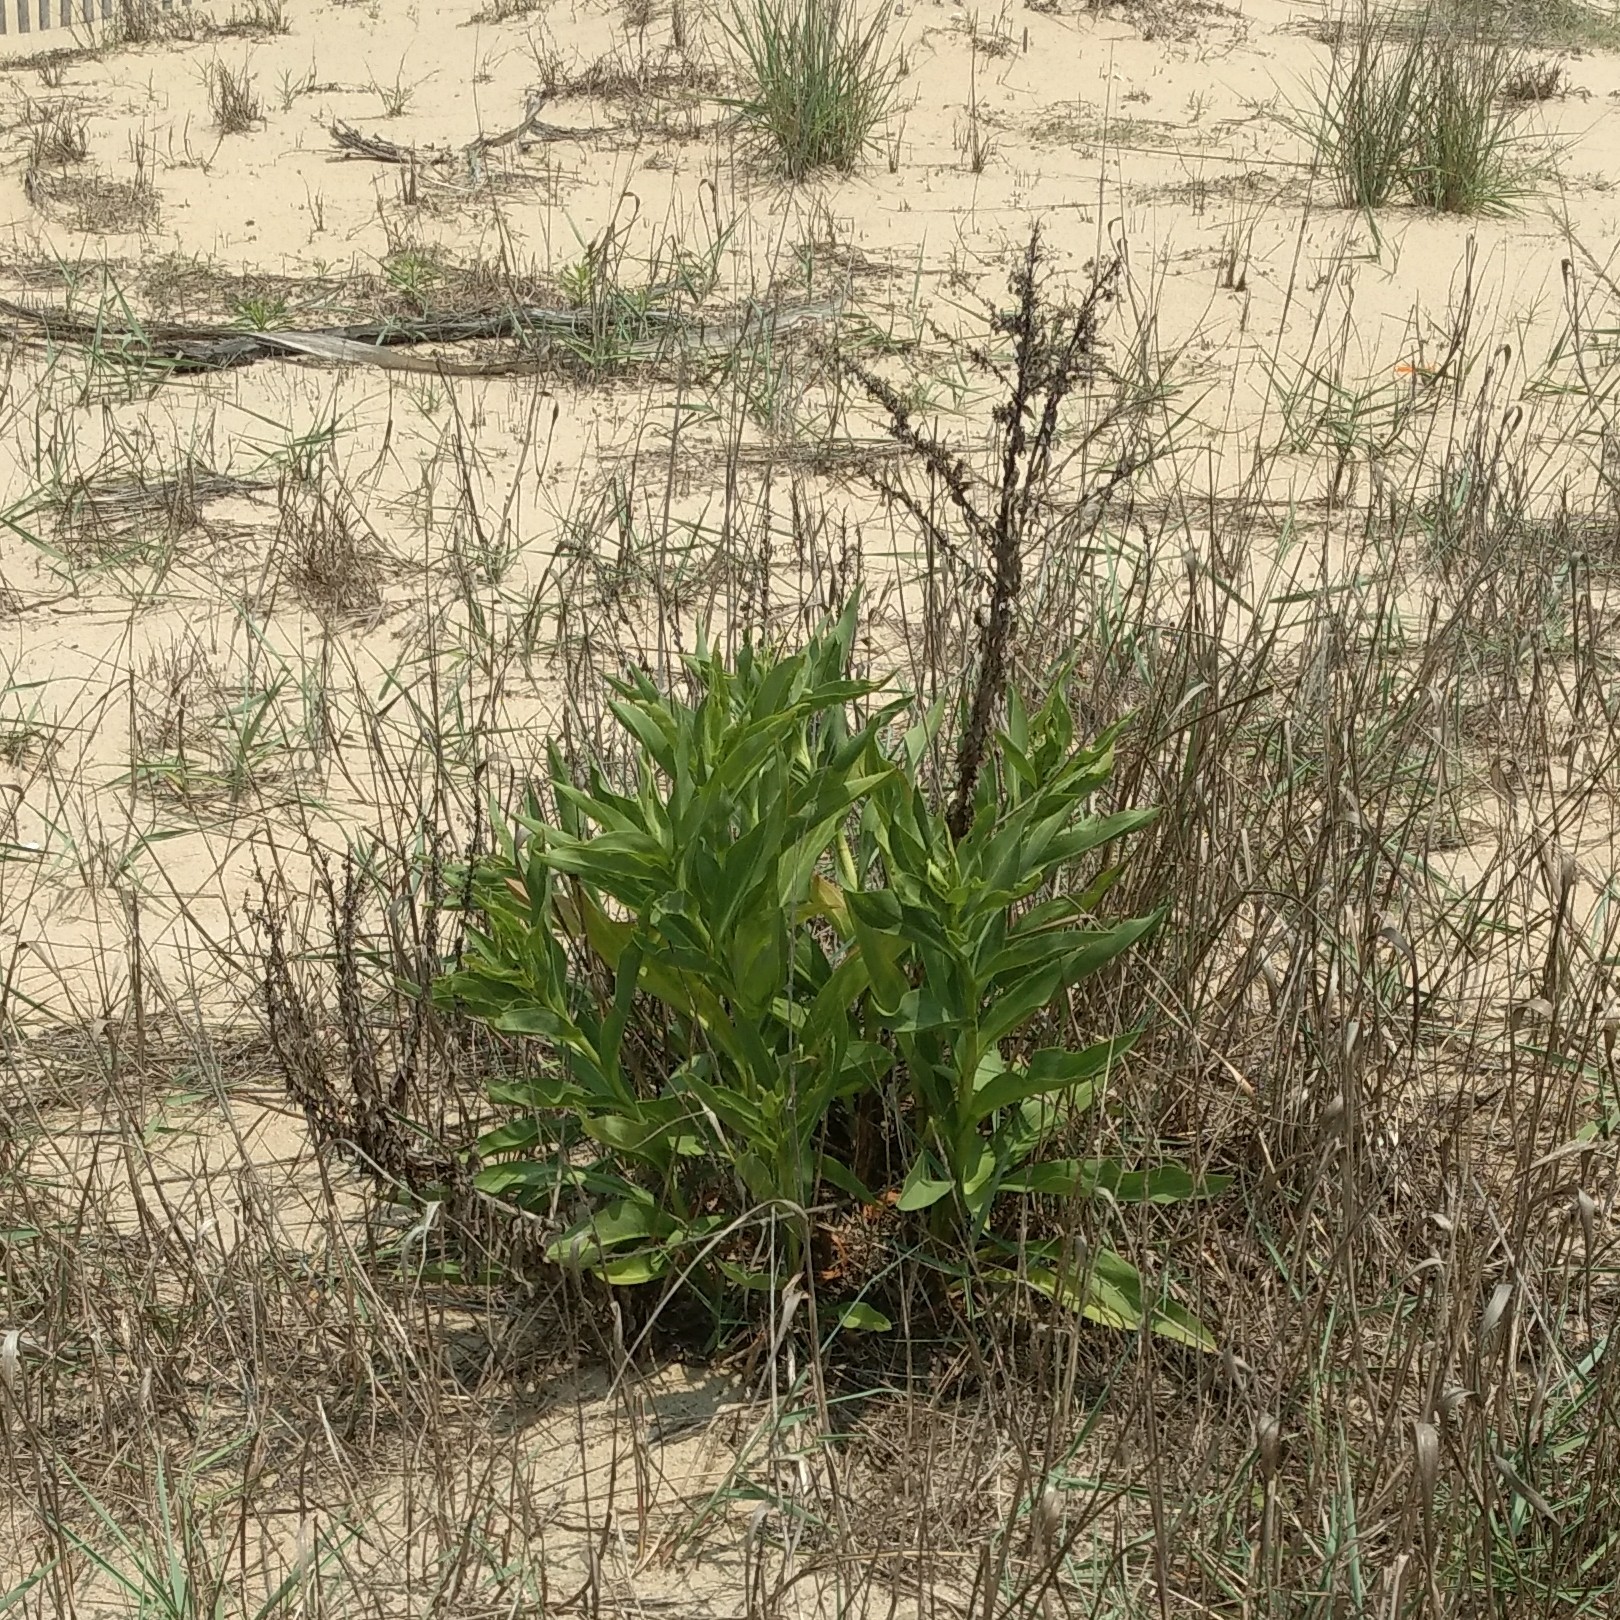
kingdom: Plantae
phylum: Tracheophyta
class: Magnoliopsida
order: Asterales
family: Asteraceae
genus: Solidago
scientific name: Solidago sempervirens
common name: Salt-marsh goldenrod
